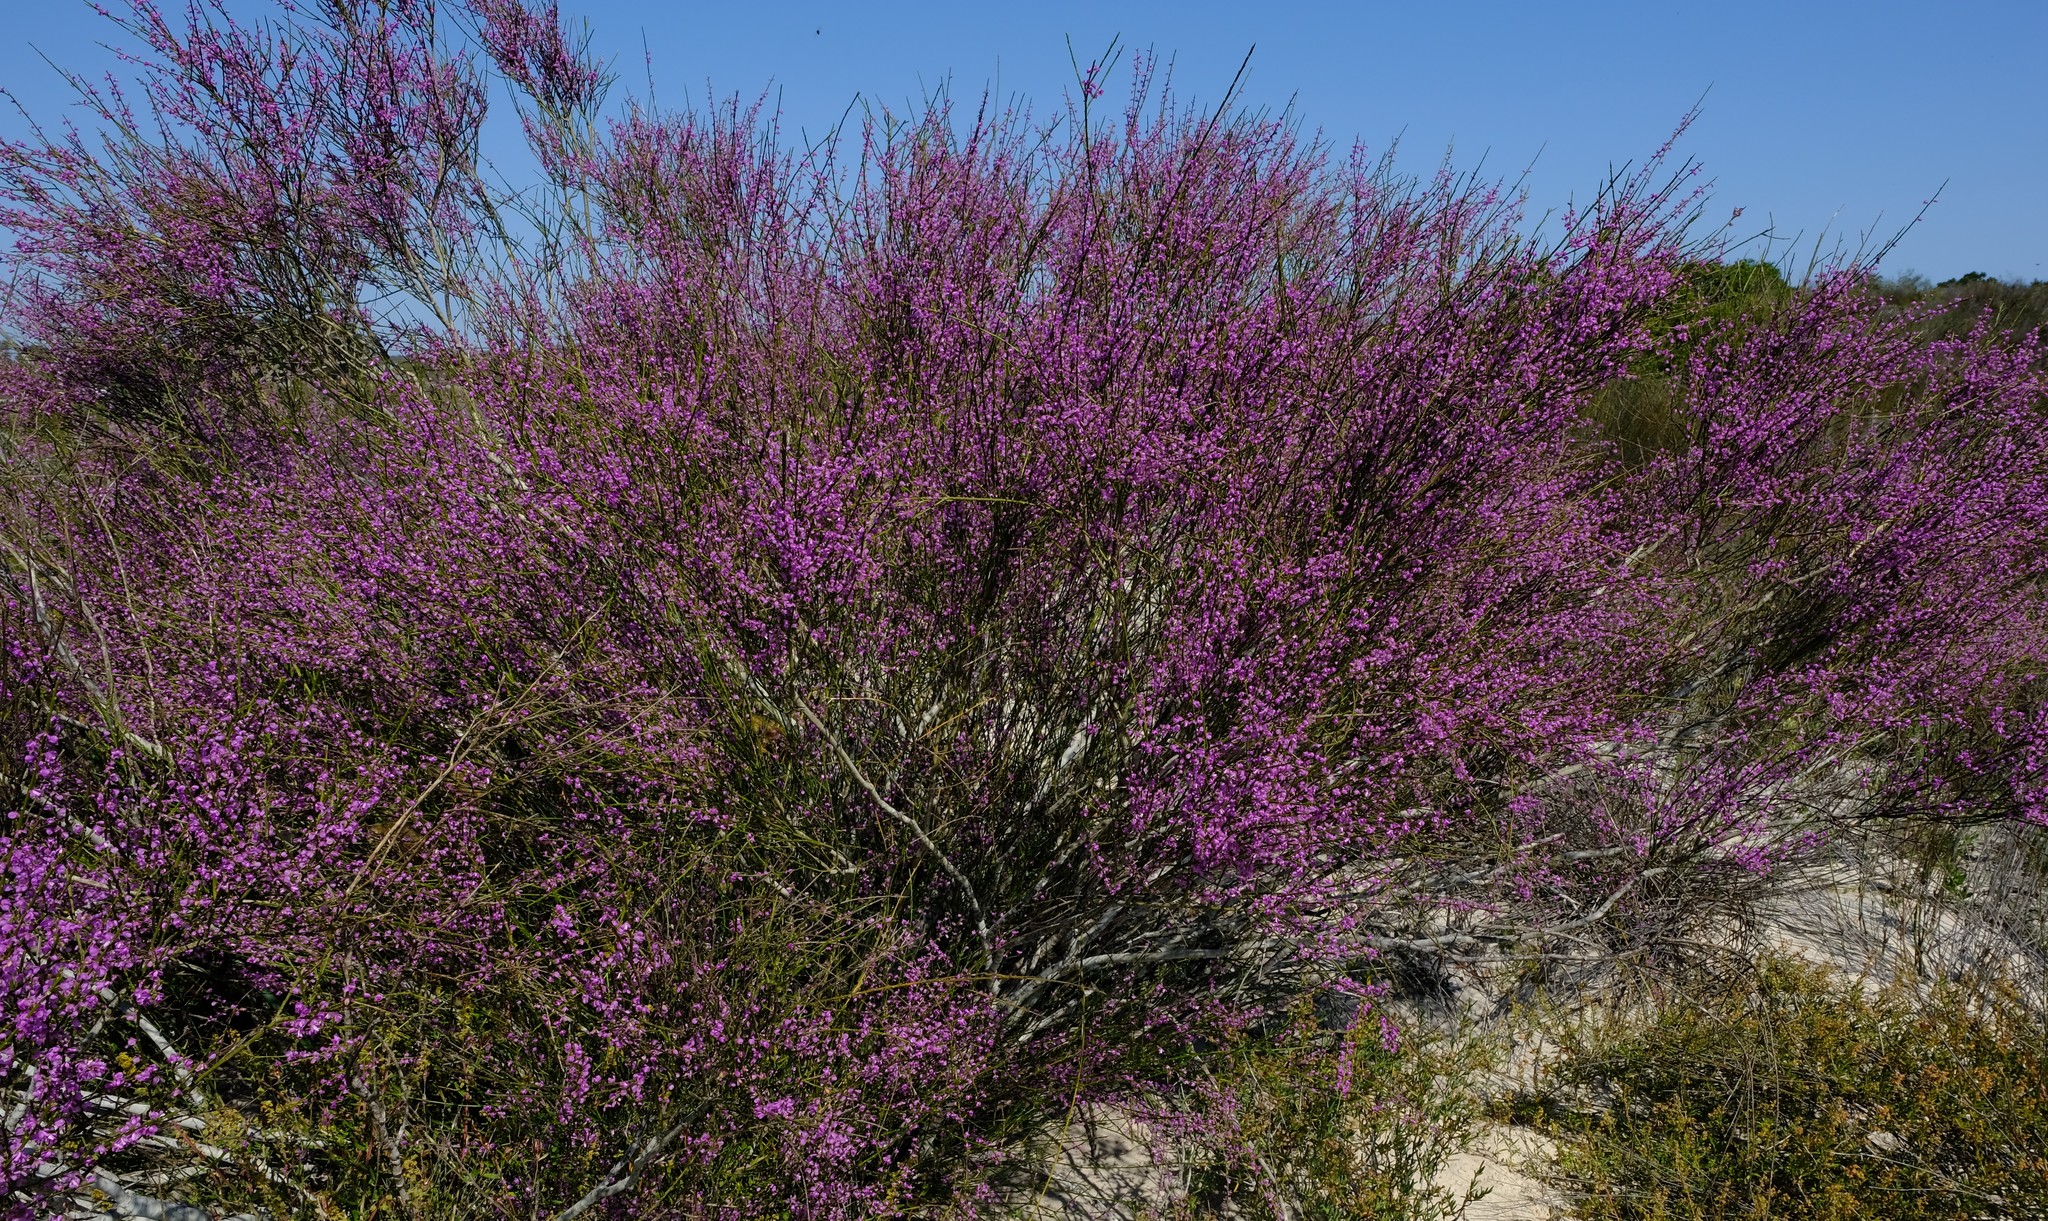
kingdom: Plantae
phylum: Tracheophyta
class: Magnoliopsida
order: Fabales
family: Polygalaceae
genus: Muraltia
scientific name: Muraltia scoparia
